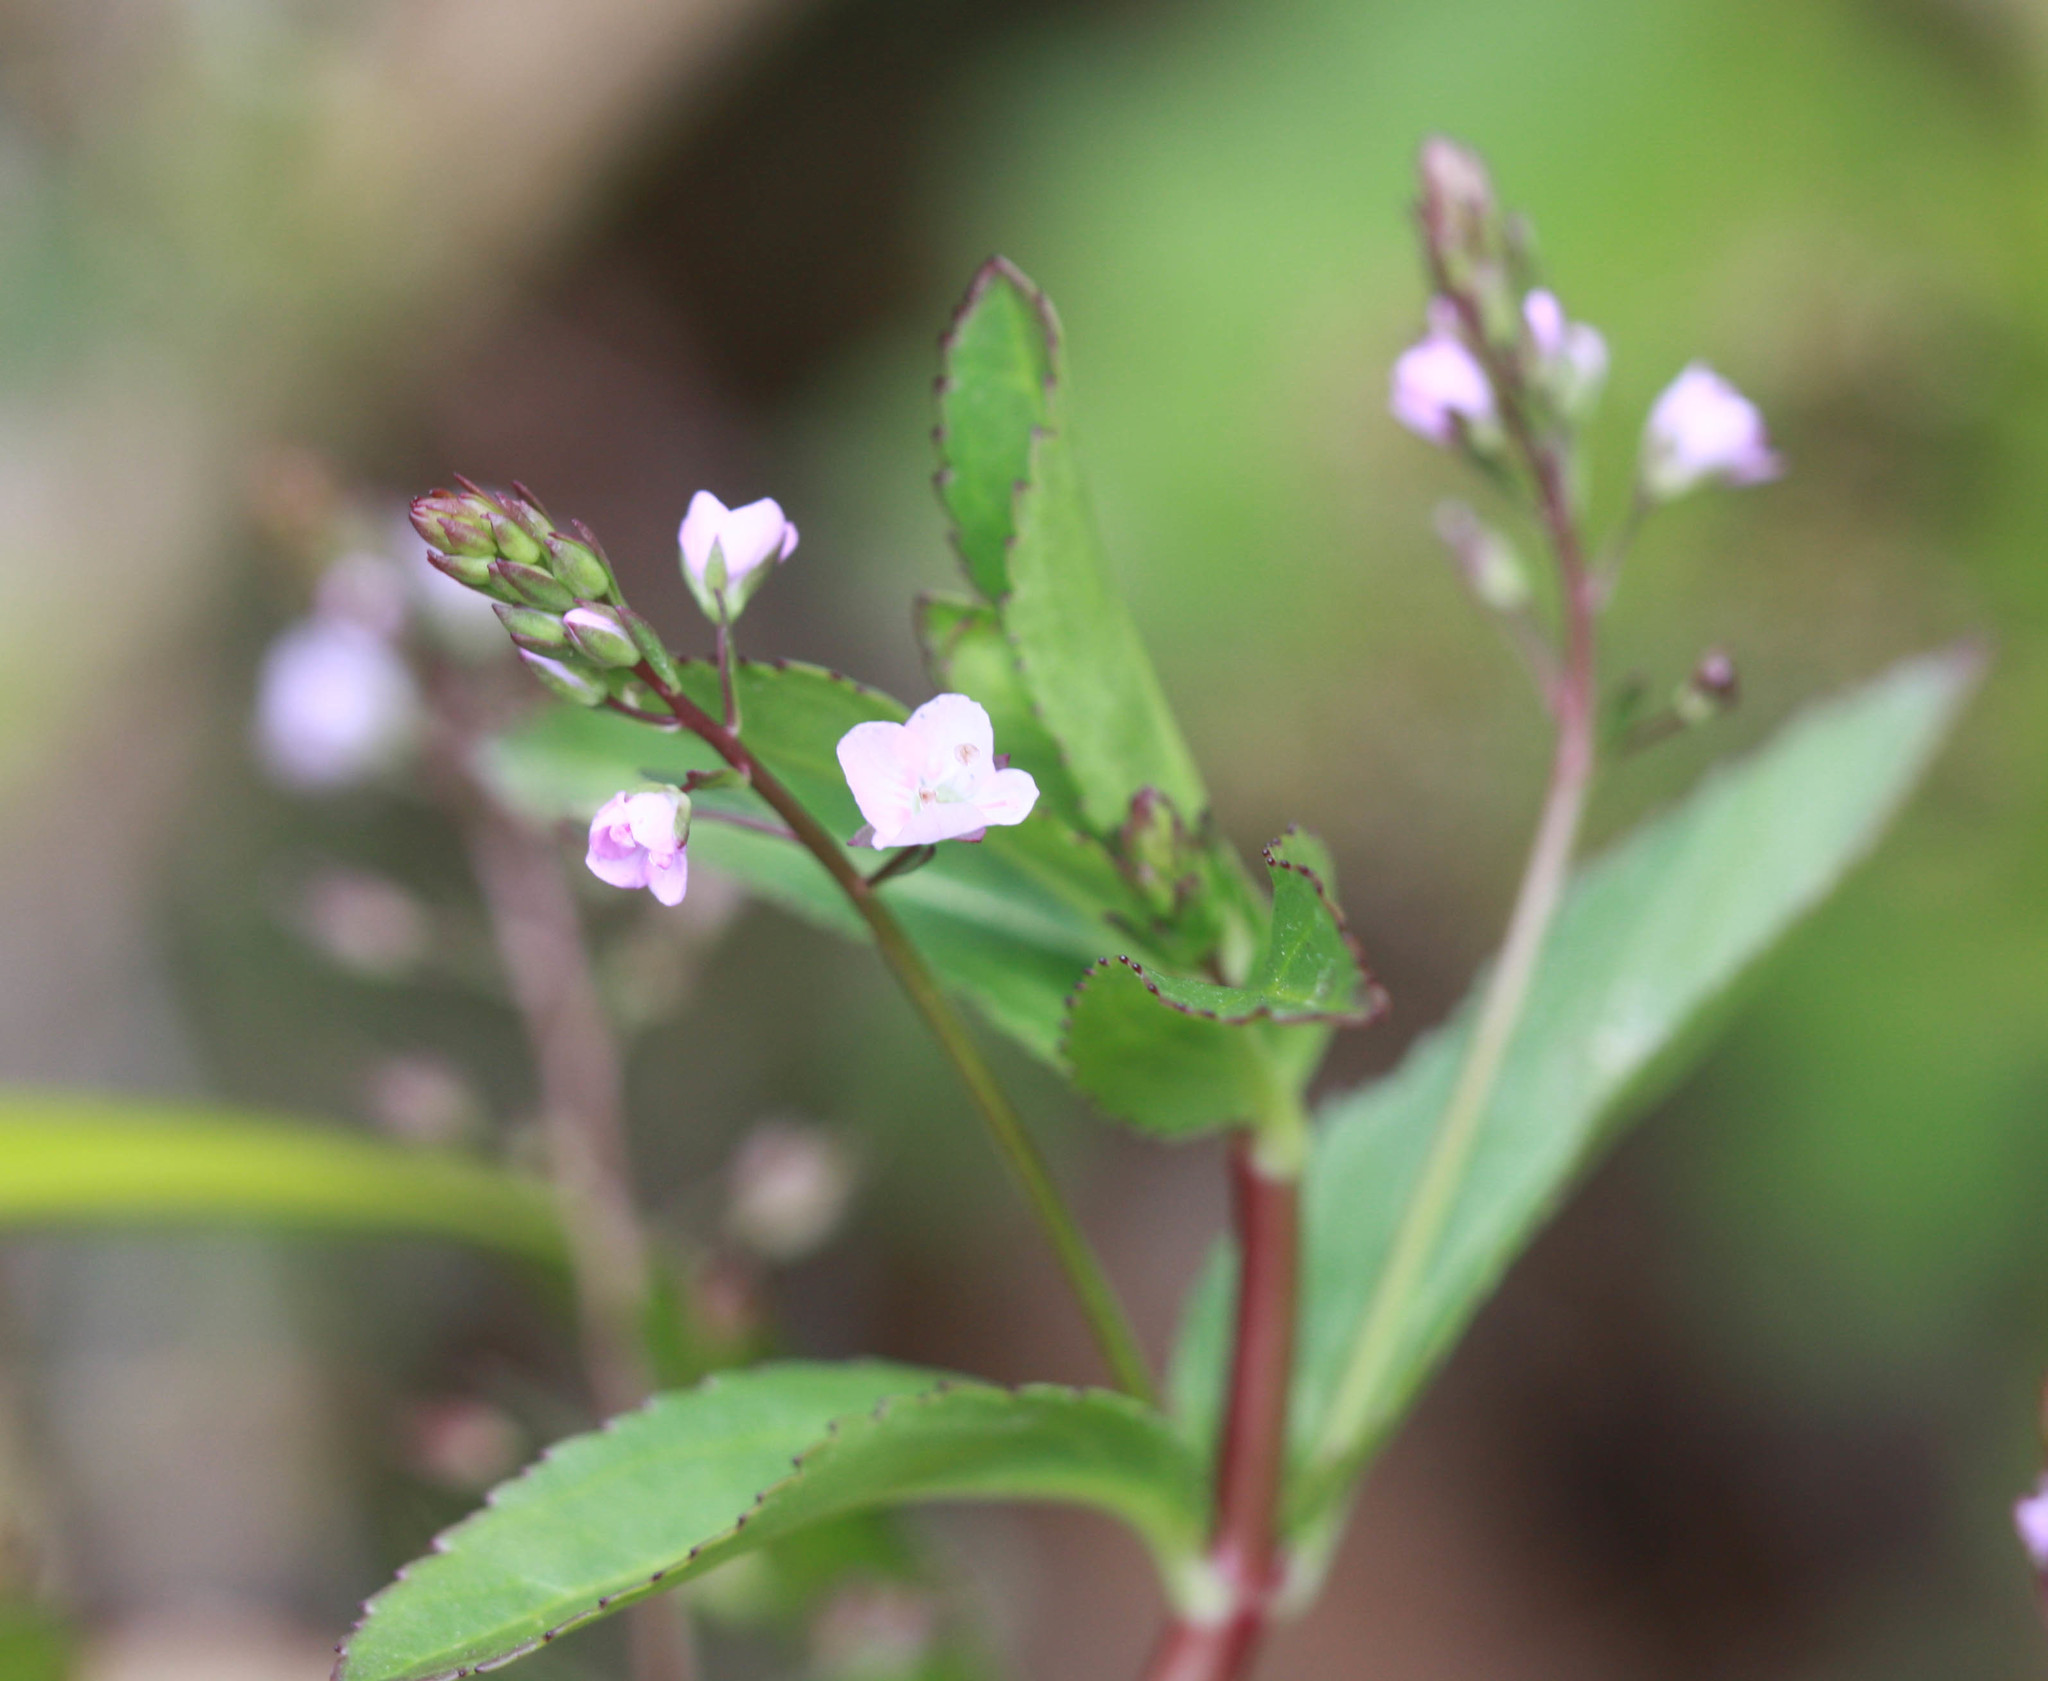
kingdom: Plantae
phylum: Tracheophyta
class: Magnoliopsida
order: Lamiales
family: Plantaginaceae
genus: Veronica
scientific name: Veronica americana
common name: American brooklime
